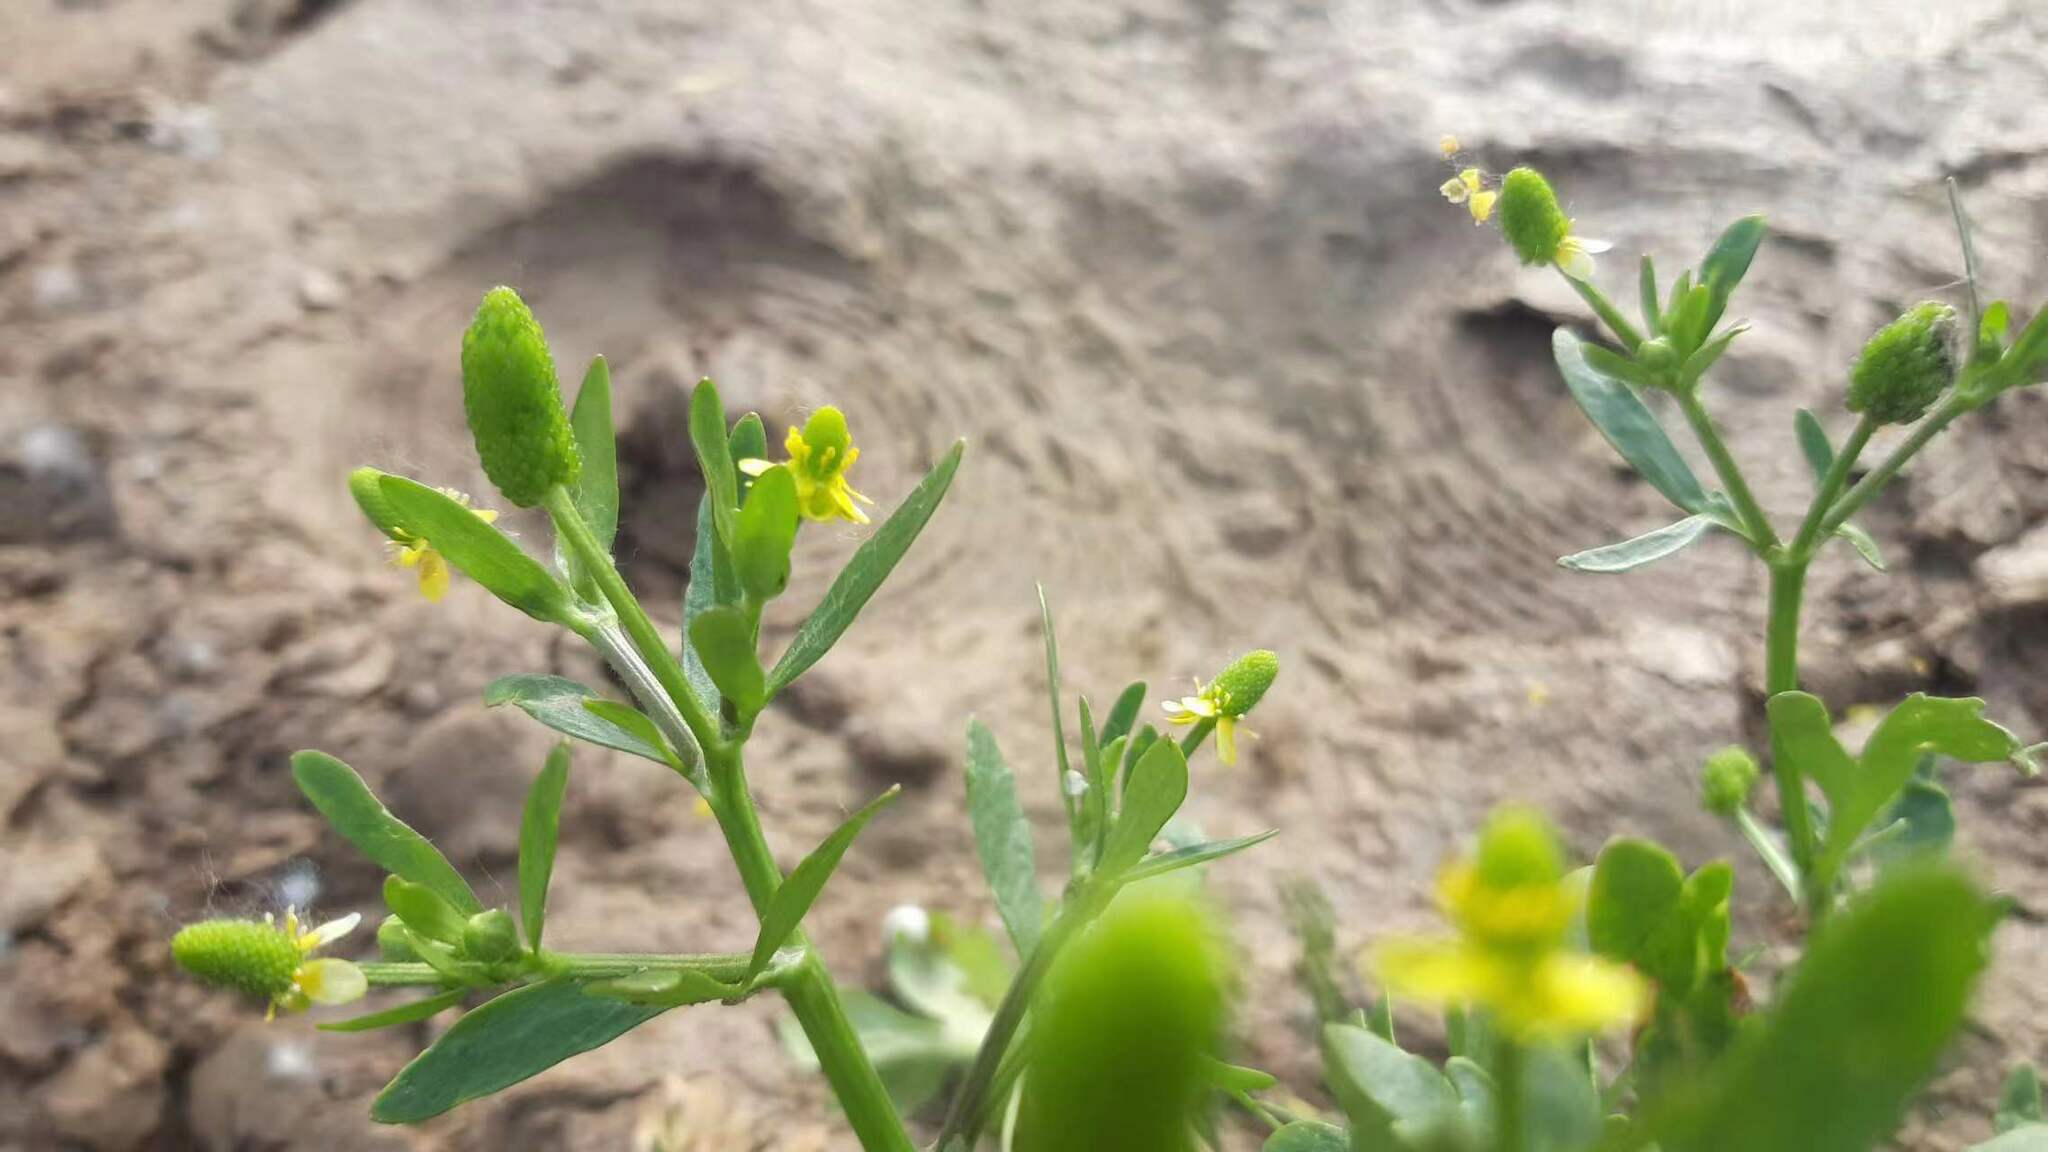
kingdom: Plantae
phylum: Tracheophyta
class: Magnoliopsida
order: Ranunculales
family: Ranunculaceae
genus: Ranunculus
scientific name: Ranunculus sceleratus
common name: Celery-leaved buttercup
